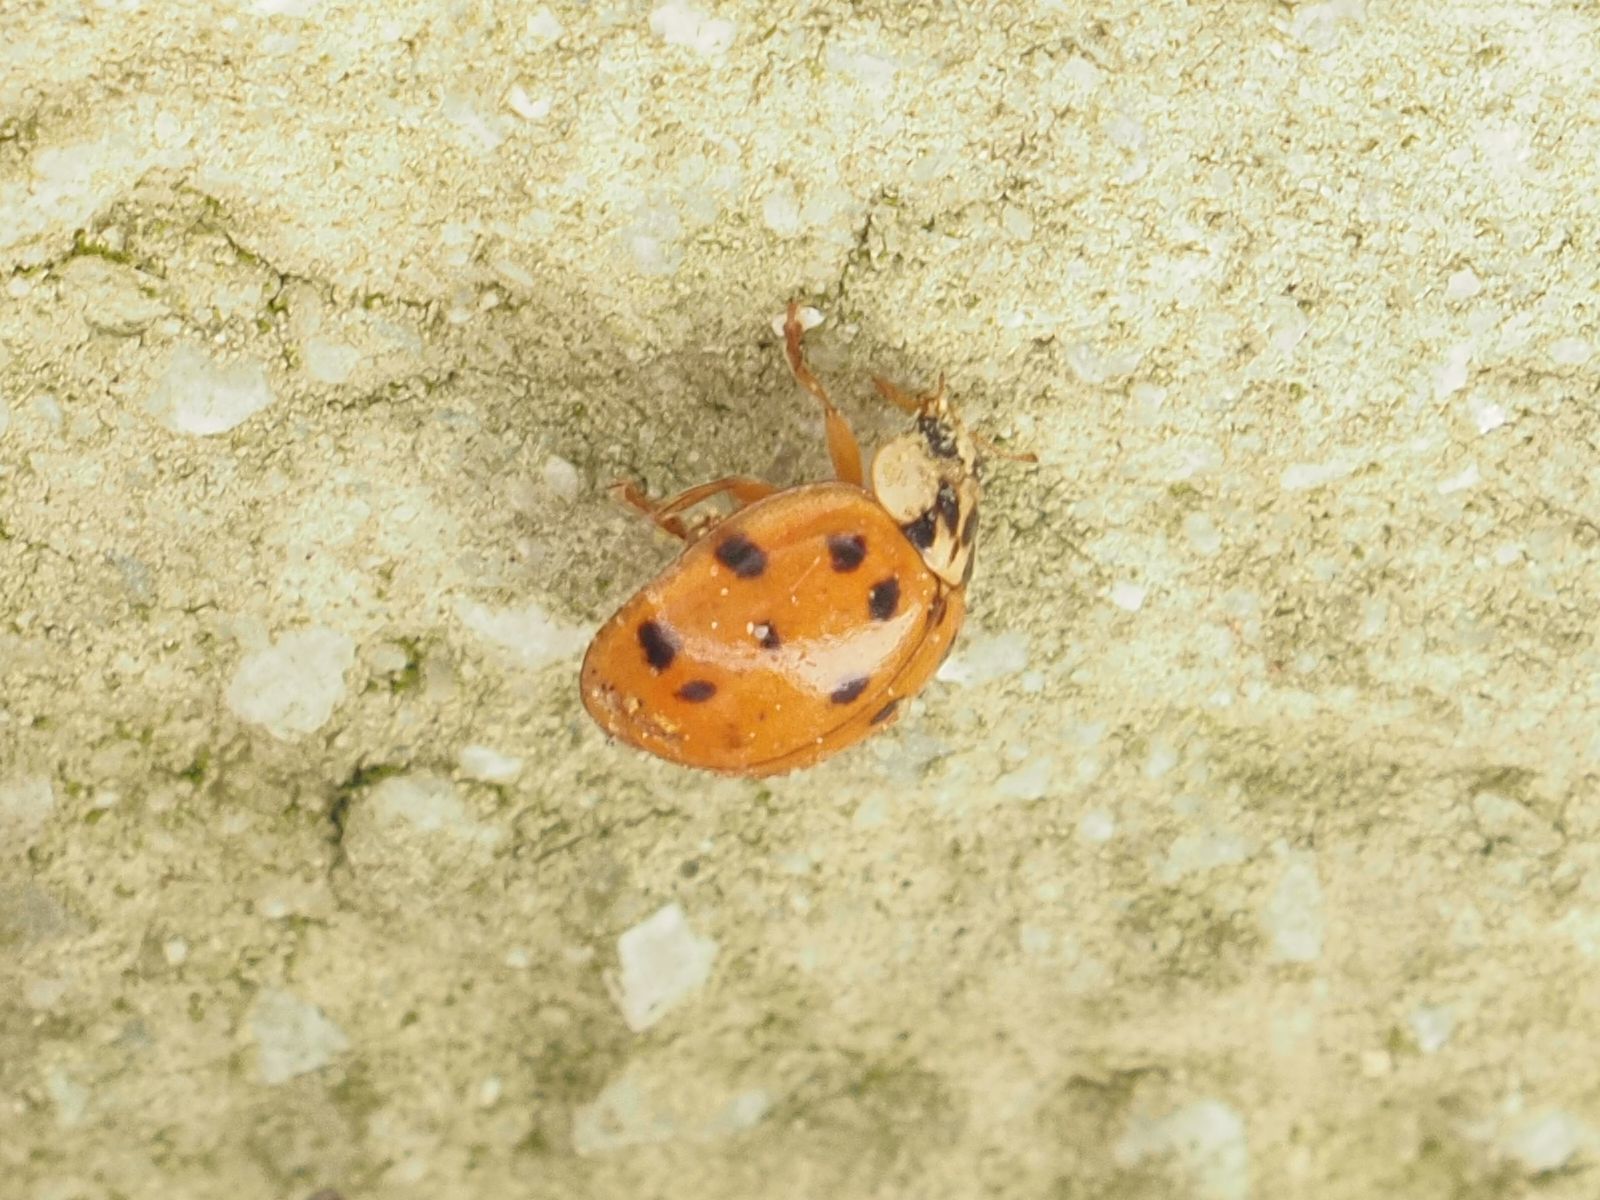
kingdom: Animalia
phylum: Arthropoda
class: Insecta
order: Coleoptera
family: Coccinellidae
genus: Harmonia
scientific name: Harmonia axyridis
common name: Harlequin ladybird
